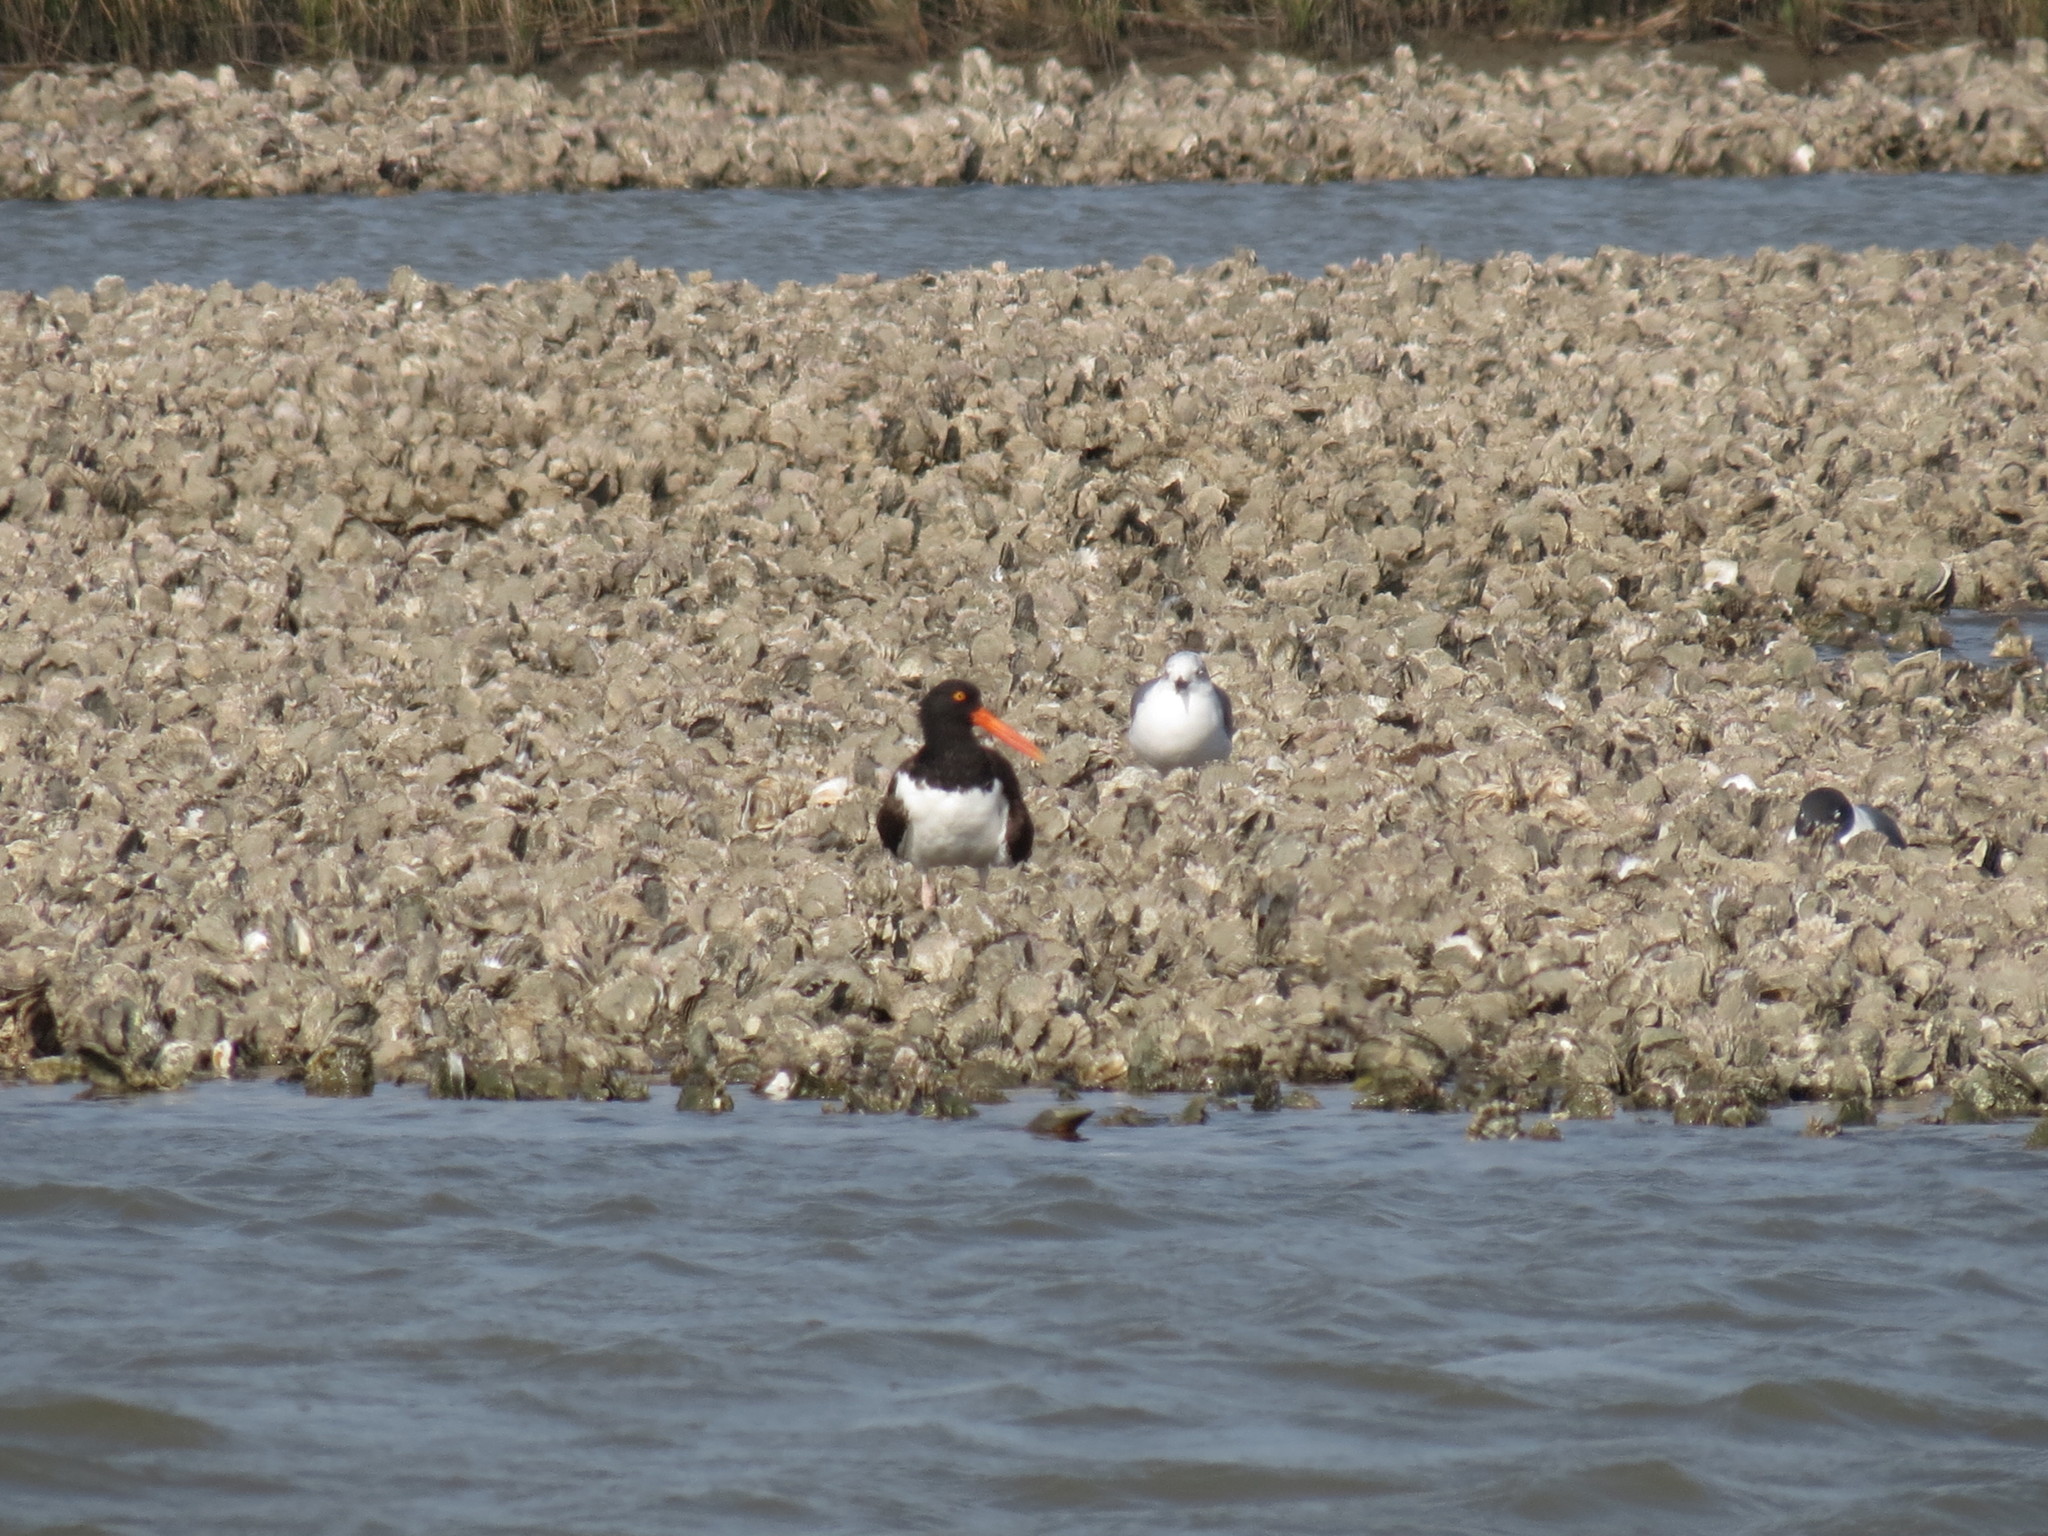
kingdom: Animalia
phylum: Chordata
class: Aves
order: Charadriiformes
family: Haematopodidae
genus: Haematopus
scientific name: Haematopus palliatus
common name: American oystercatcher
